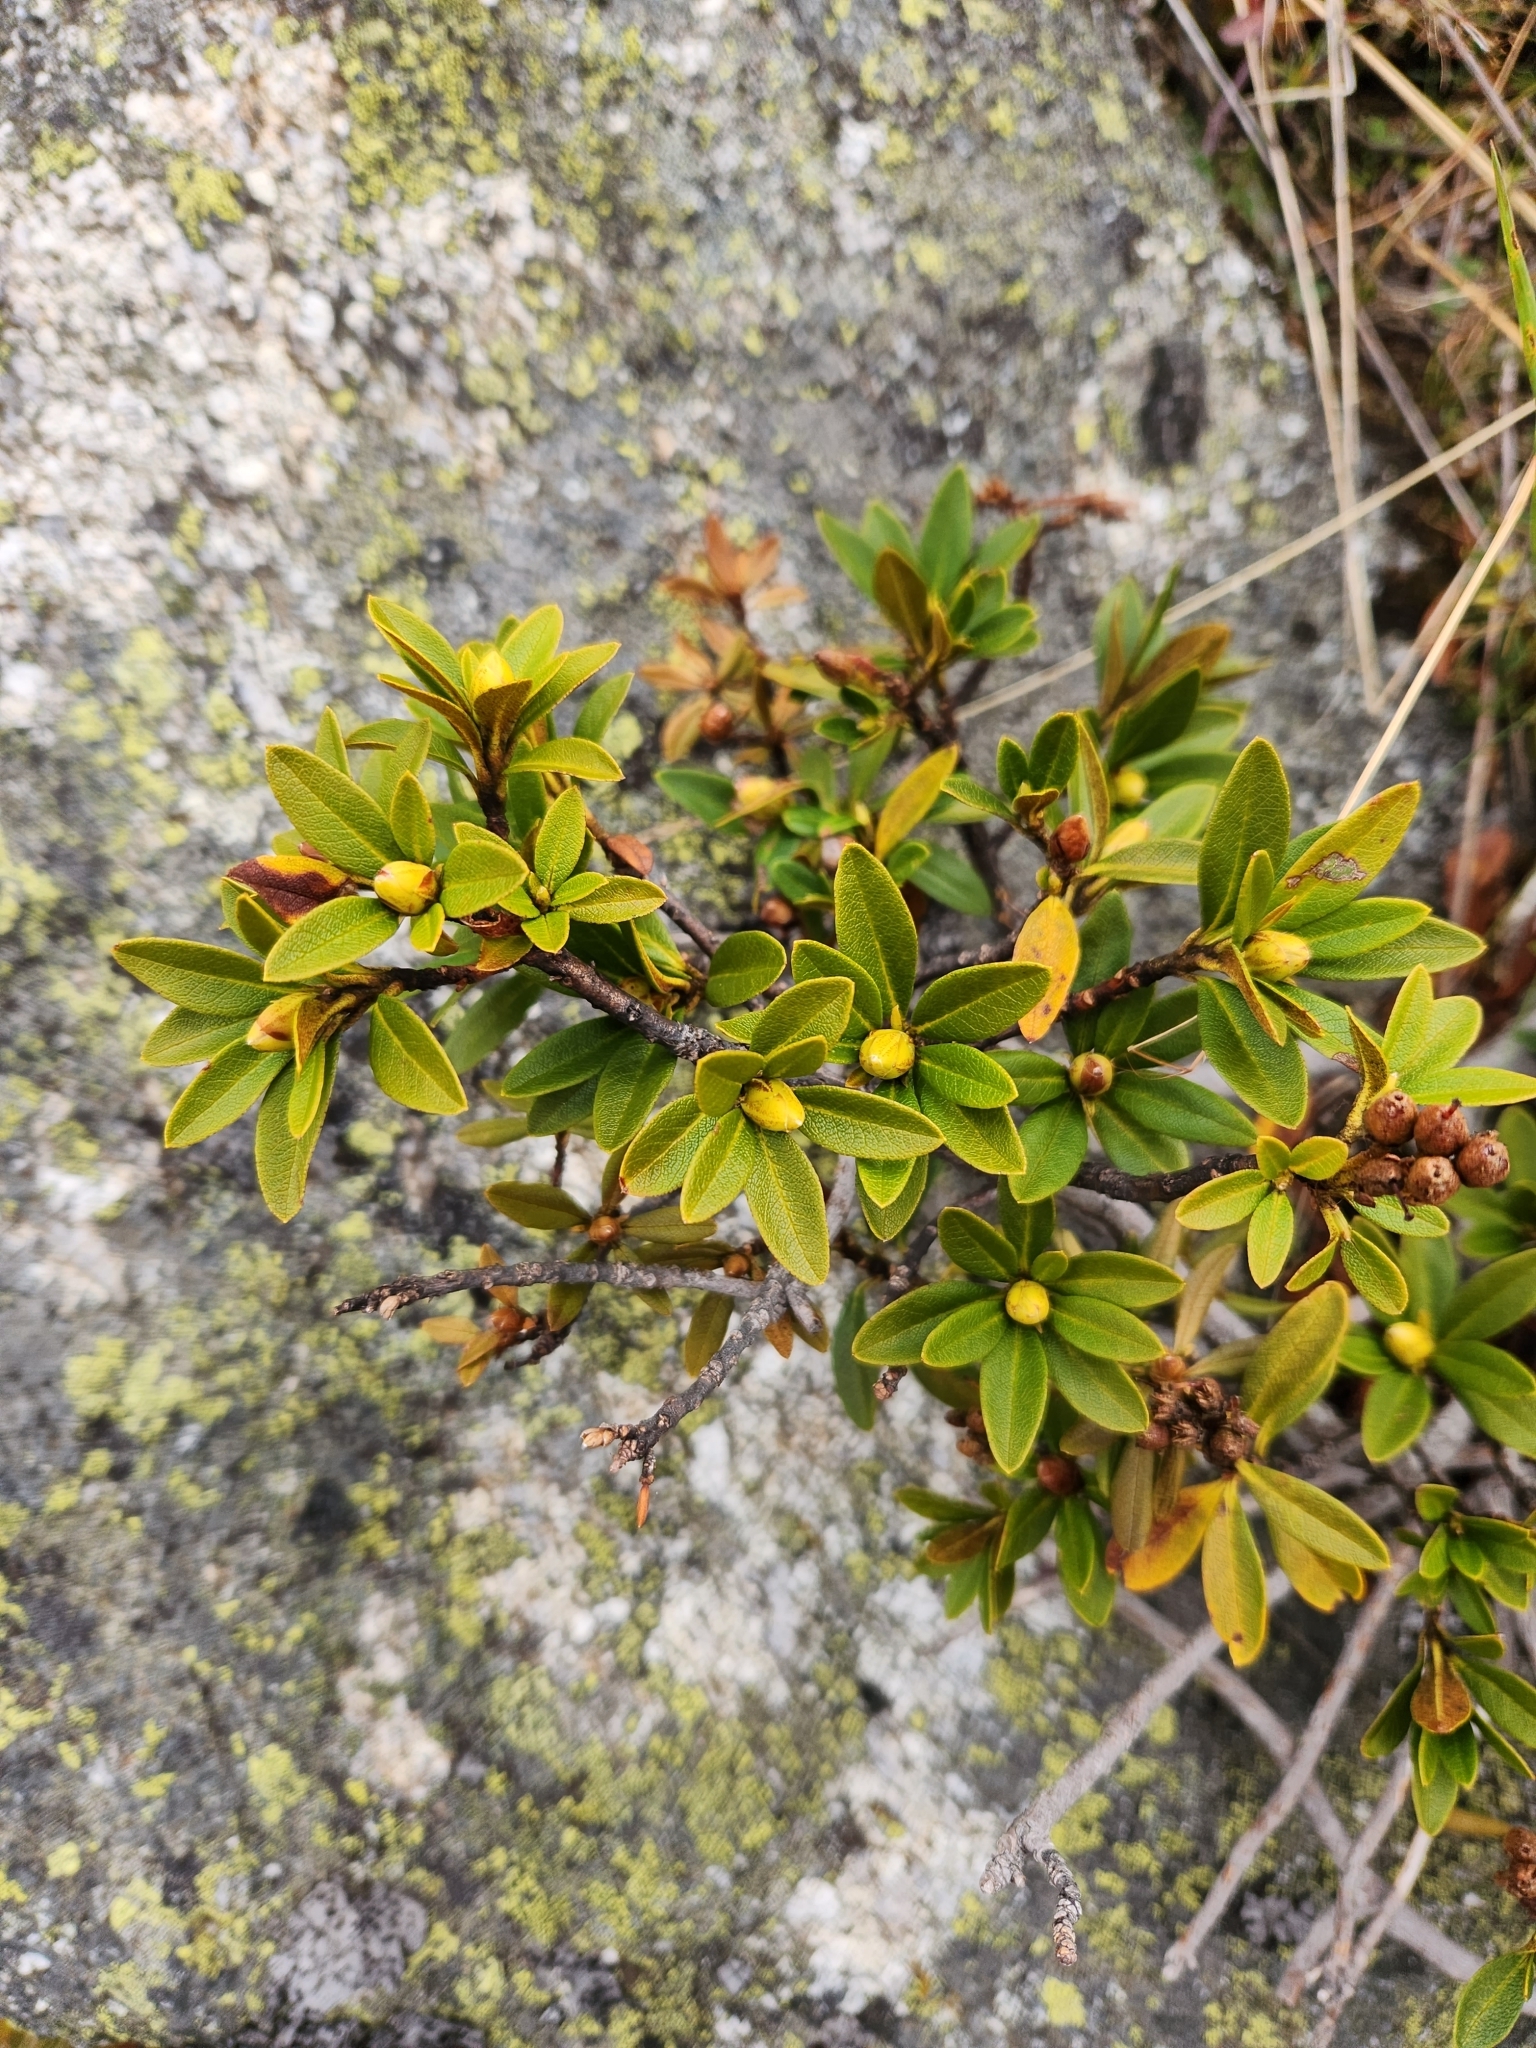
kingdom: Plantae
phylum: Tracheophyta
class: Magnoliopsida
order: Ericales
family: Ericaceae
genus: Rhododendron
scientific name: Rhododendron ferrugineum
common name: Alpenrose
